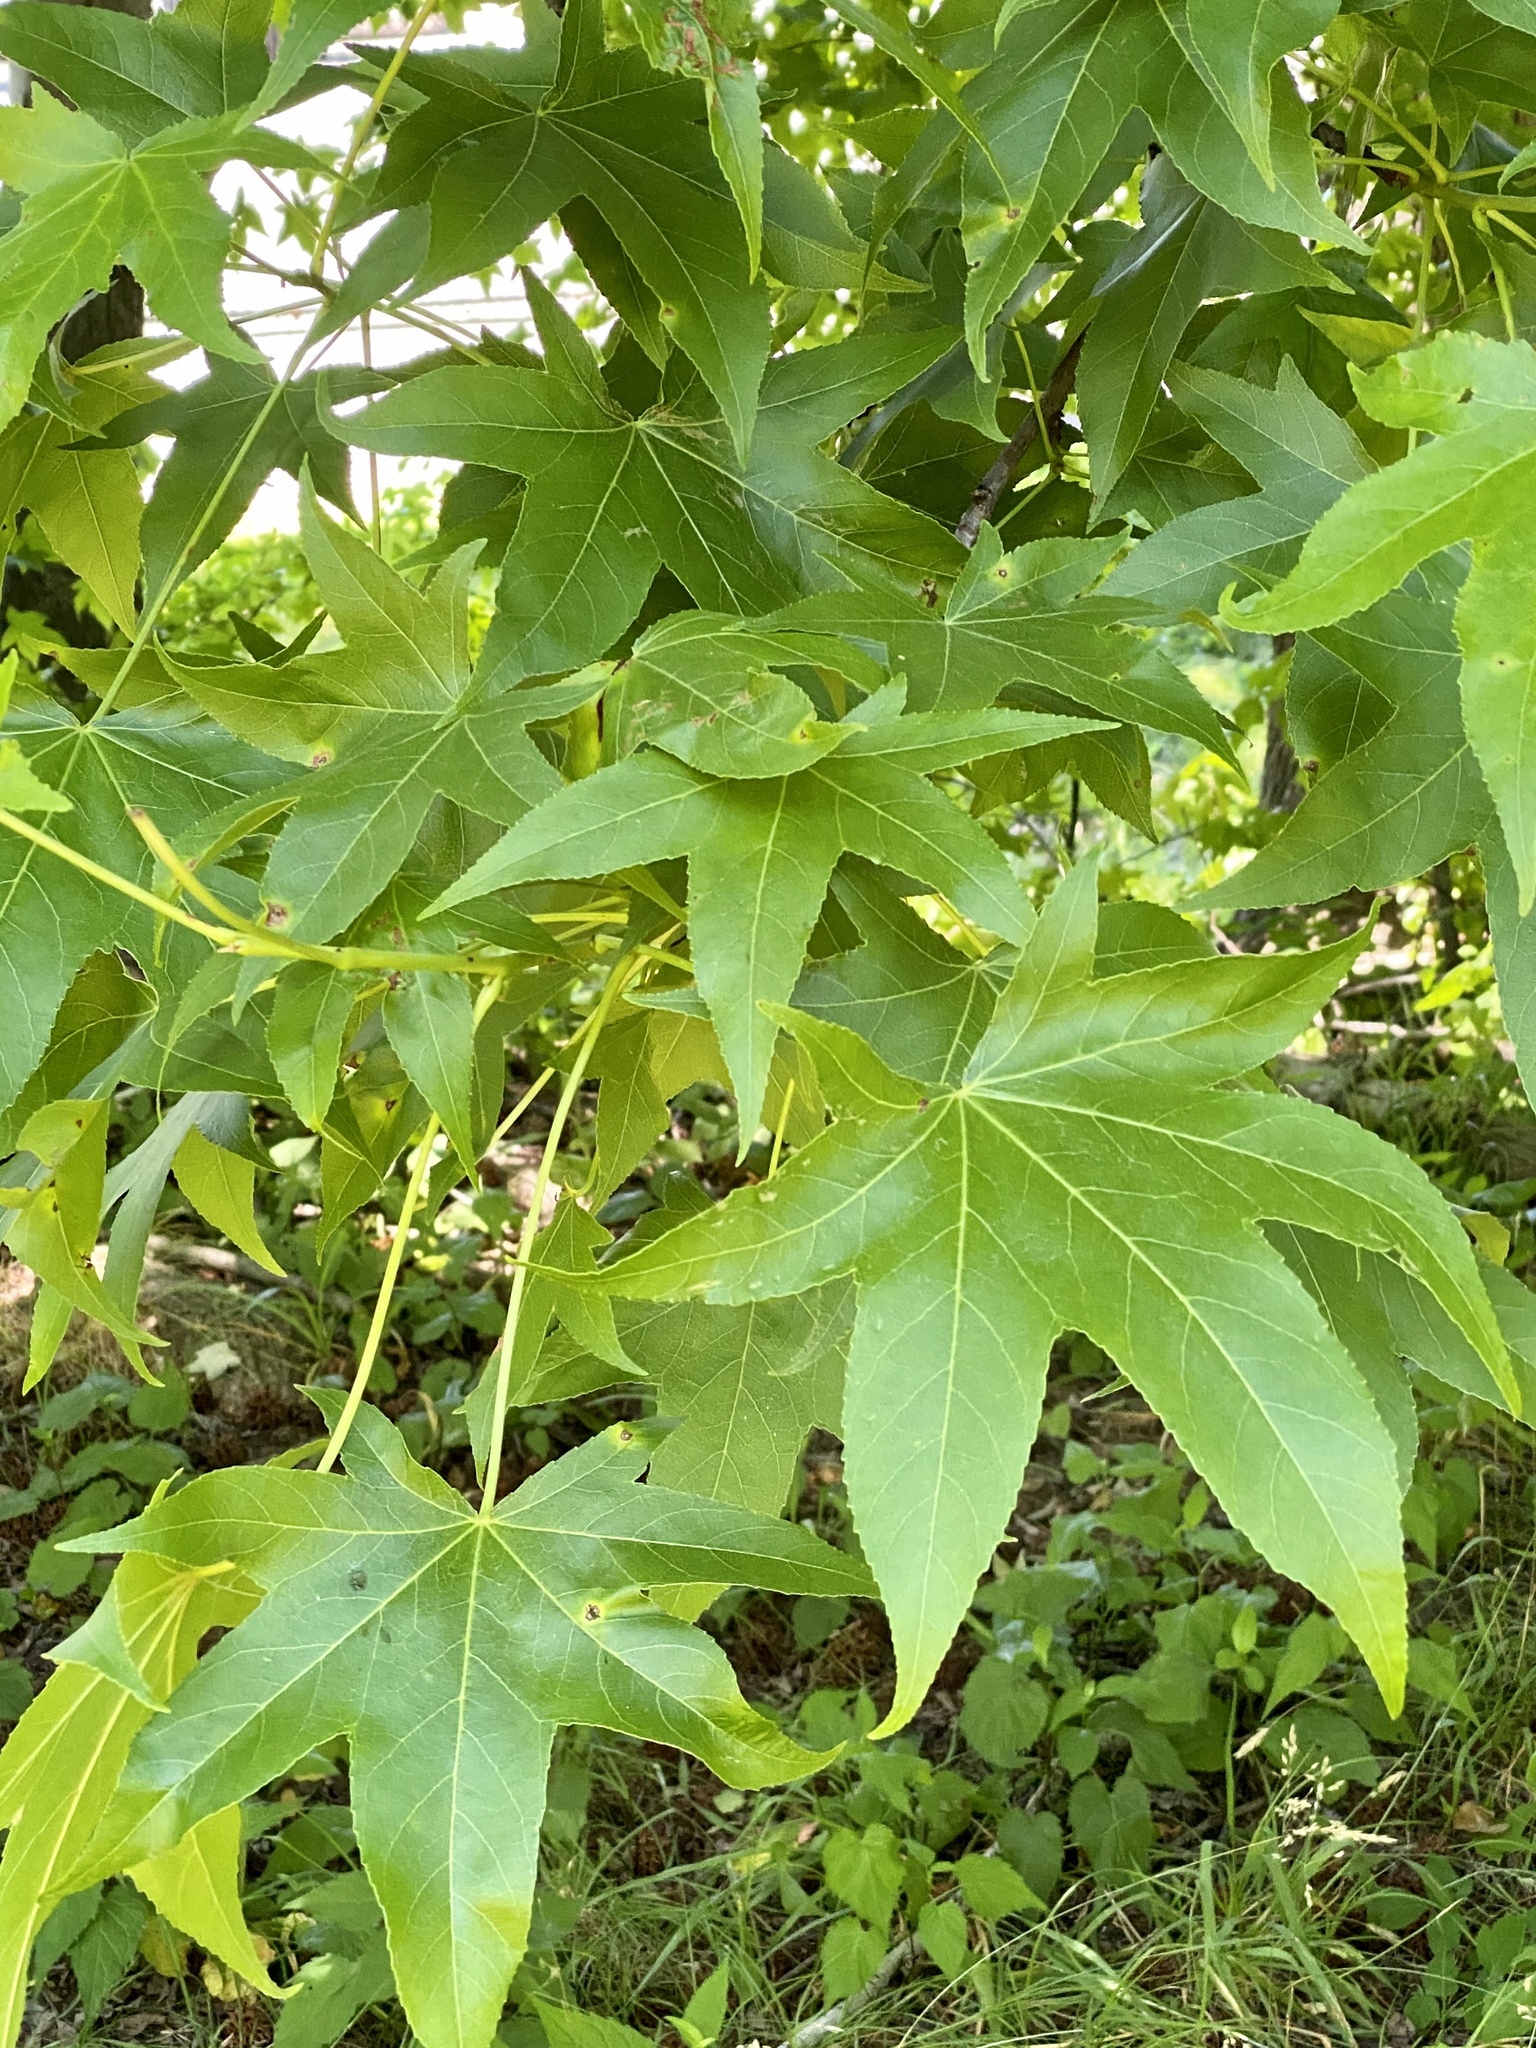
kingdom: Plantae
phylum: Tracheophyta
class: Magnoliopsida
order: Saxifragales
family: Altingiaceae
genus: Liquidambar
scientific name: Liquidambar styraciflua
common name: Sweet gum
